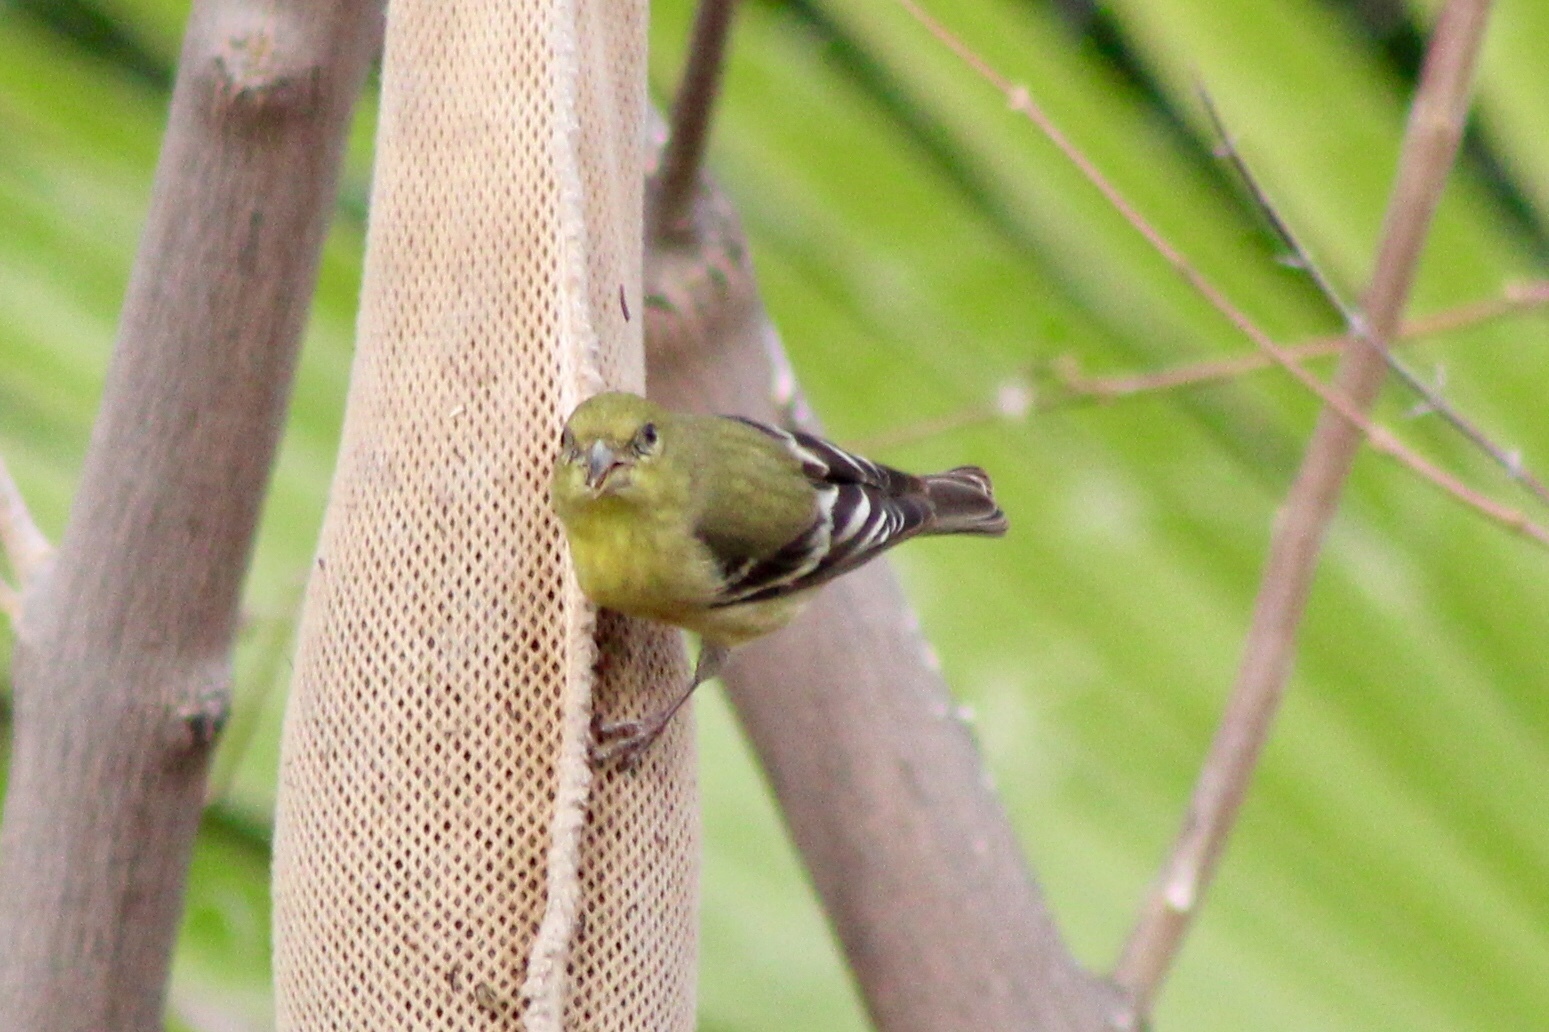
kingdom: Animalia
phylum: Chordata
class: Aves
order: Passeriformes
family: Fringillidae
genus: Spinus
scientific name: Spinus psaltria
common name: Lesser goldfinch
